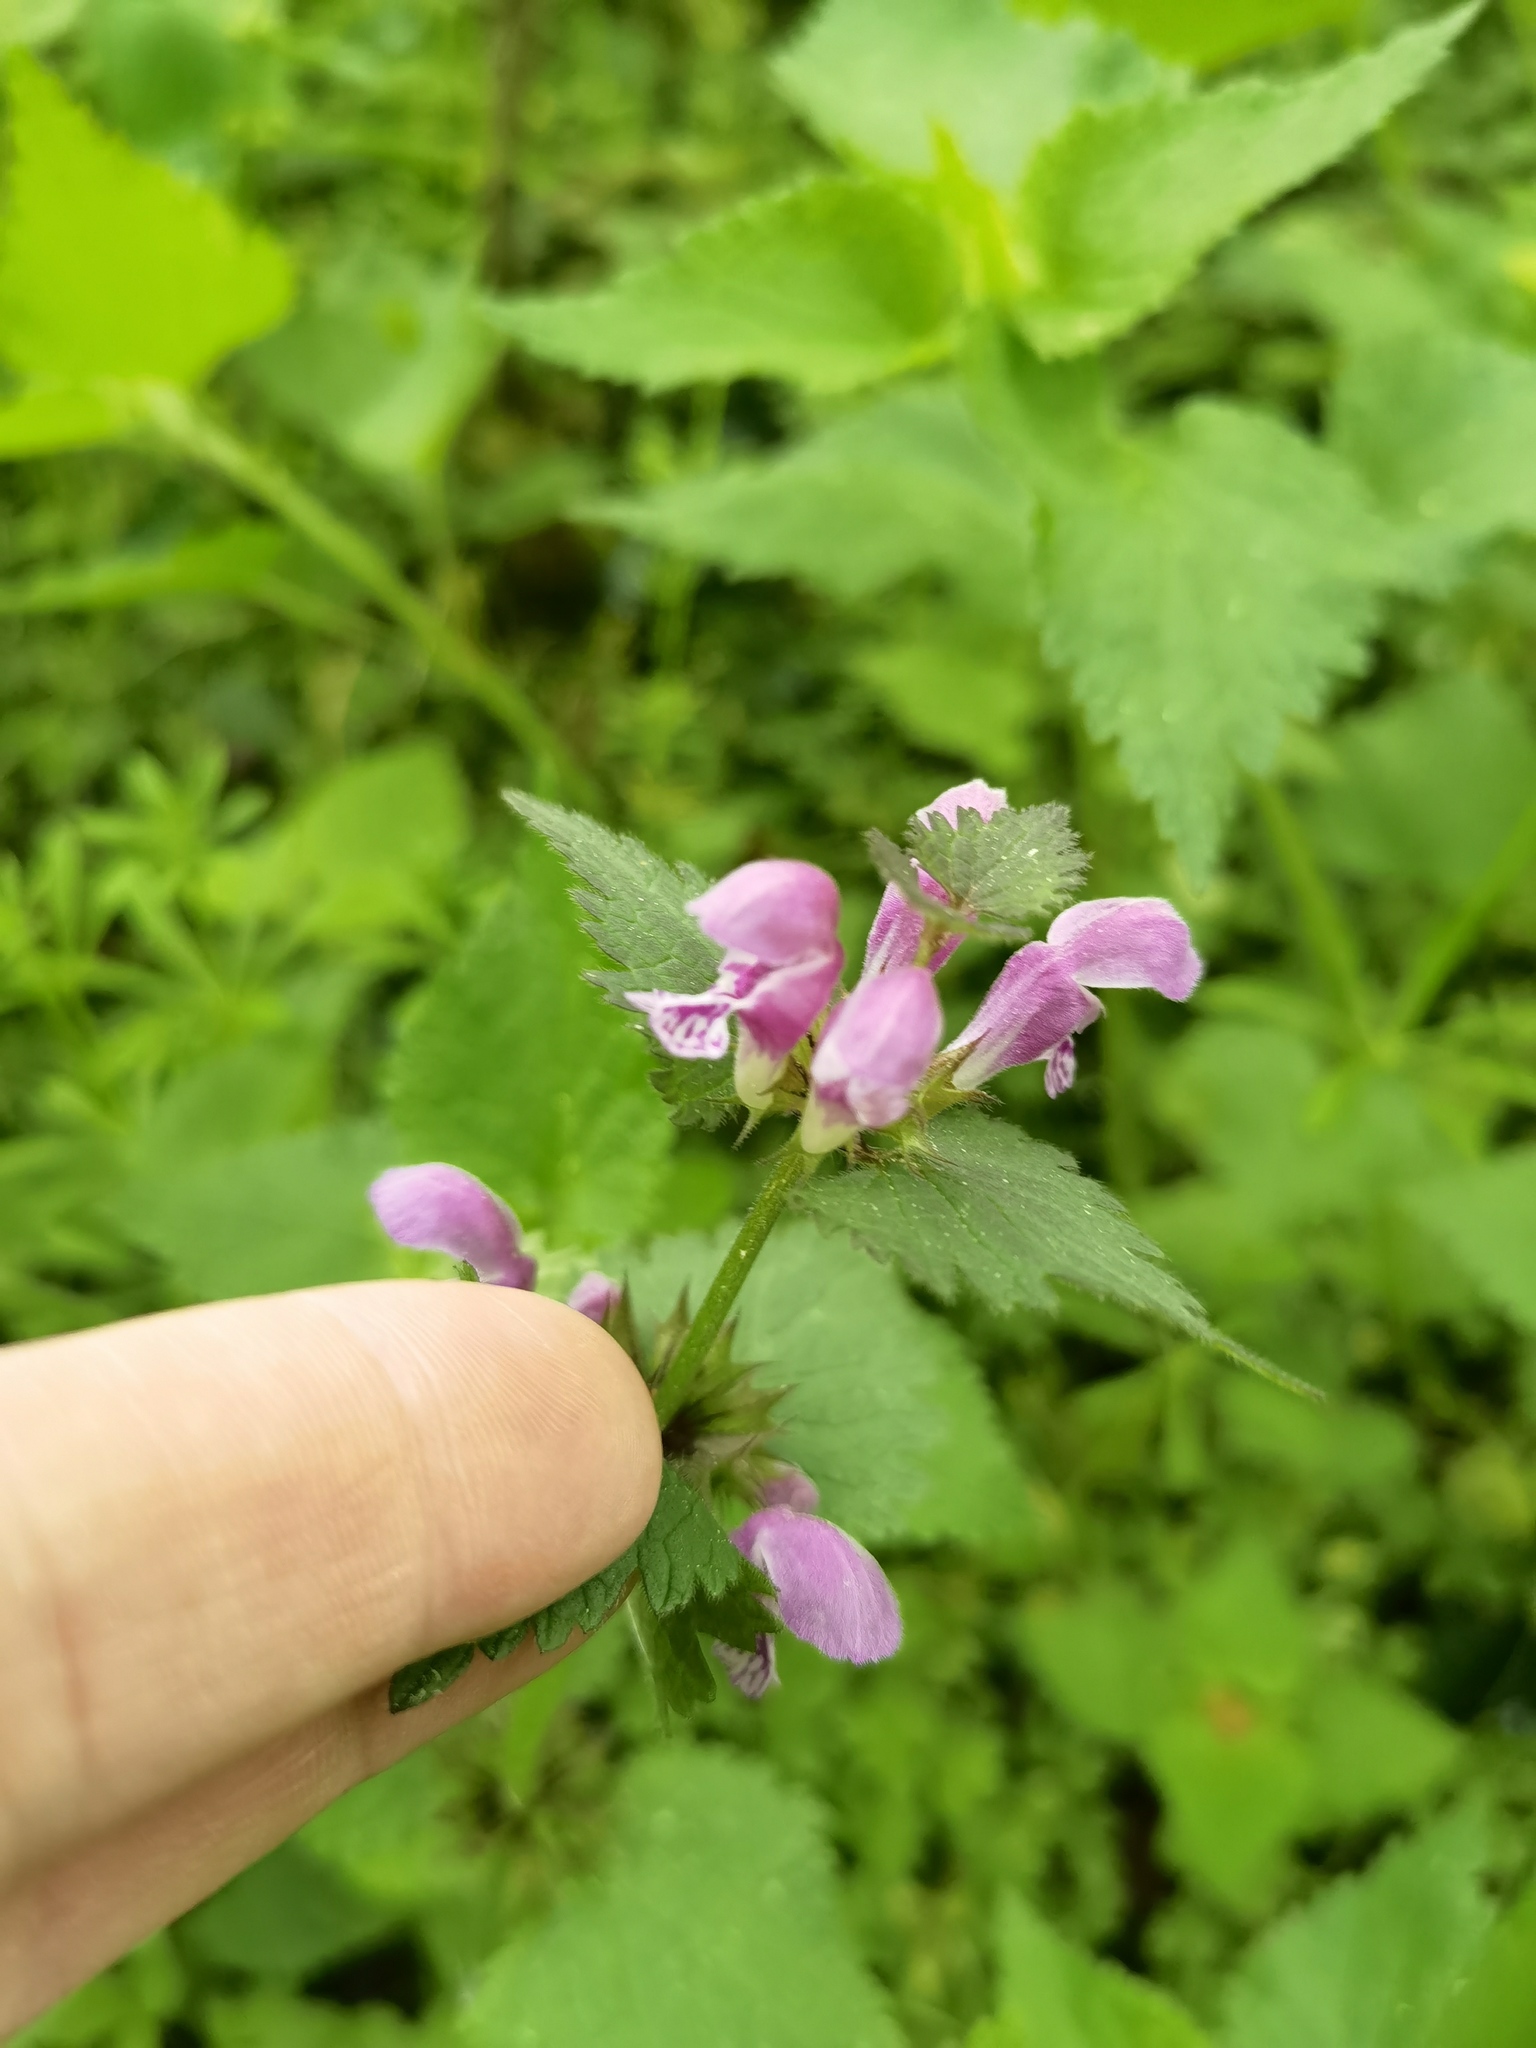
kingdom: Plantae
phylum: Tracheophyta
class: Magnoliopsida
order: Lamiales
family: Lamiaceae
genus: Lamium
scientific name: Lamium maculatum
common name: Spotted dead-nettle
